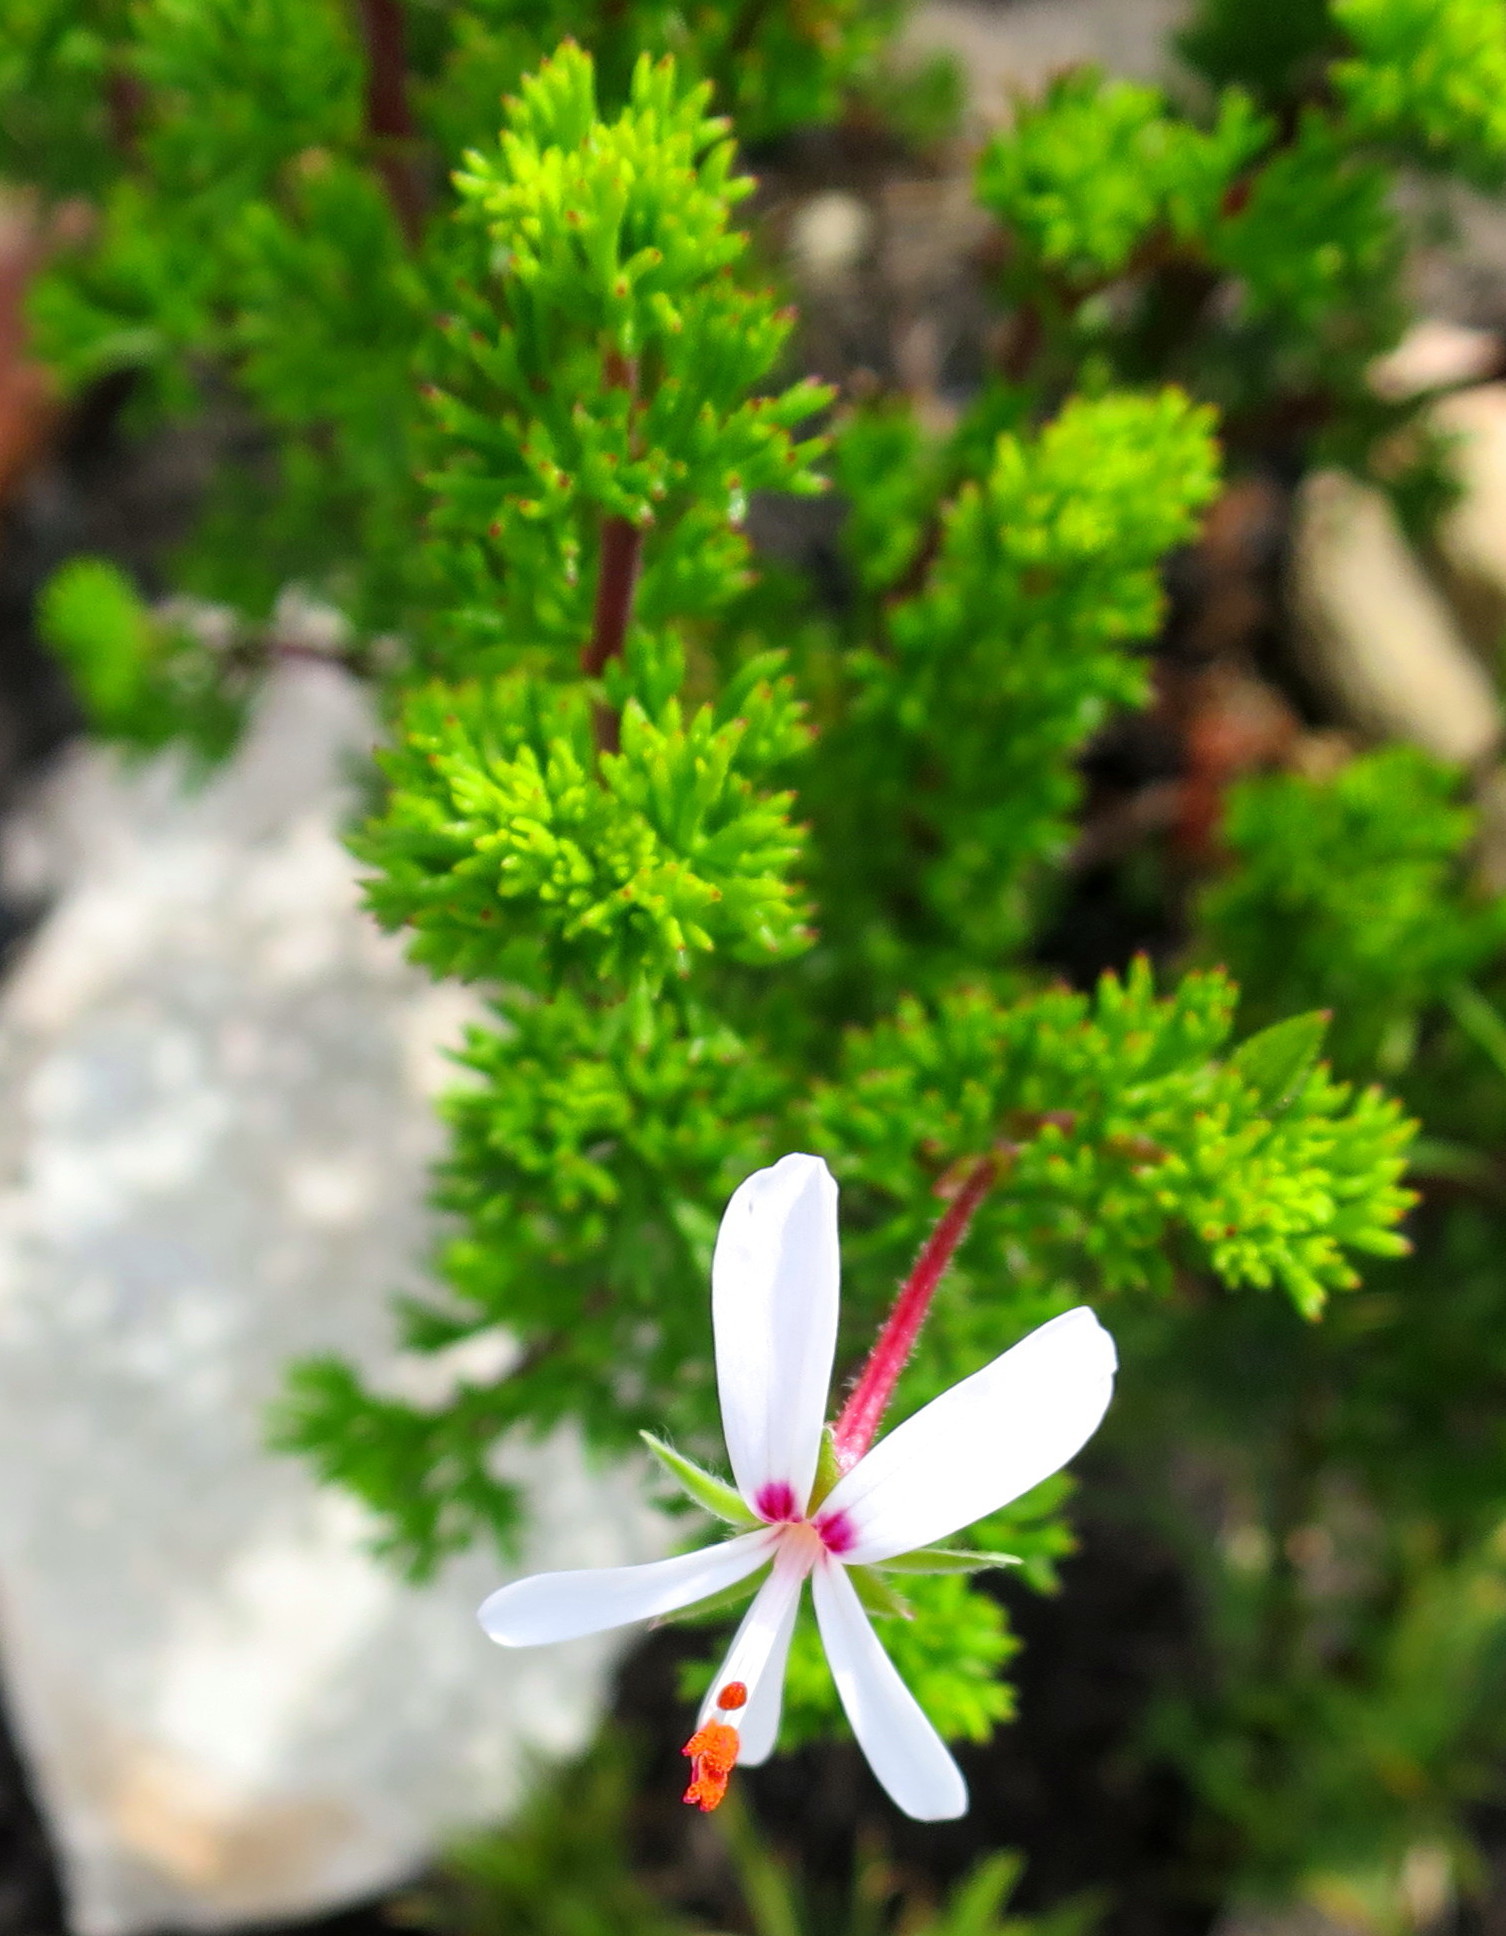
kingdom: Plantae
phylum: Tracheophyta
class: Magnoliopsida
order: Geraniales
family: Geraniaceae
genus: Pelargonium
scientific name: Pelargonium fruticosum
